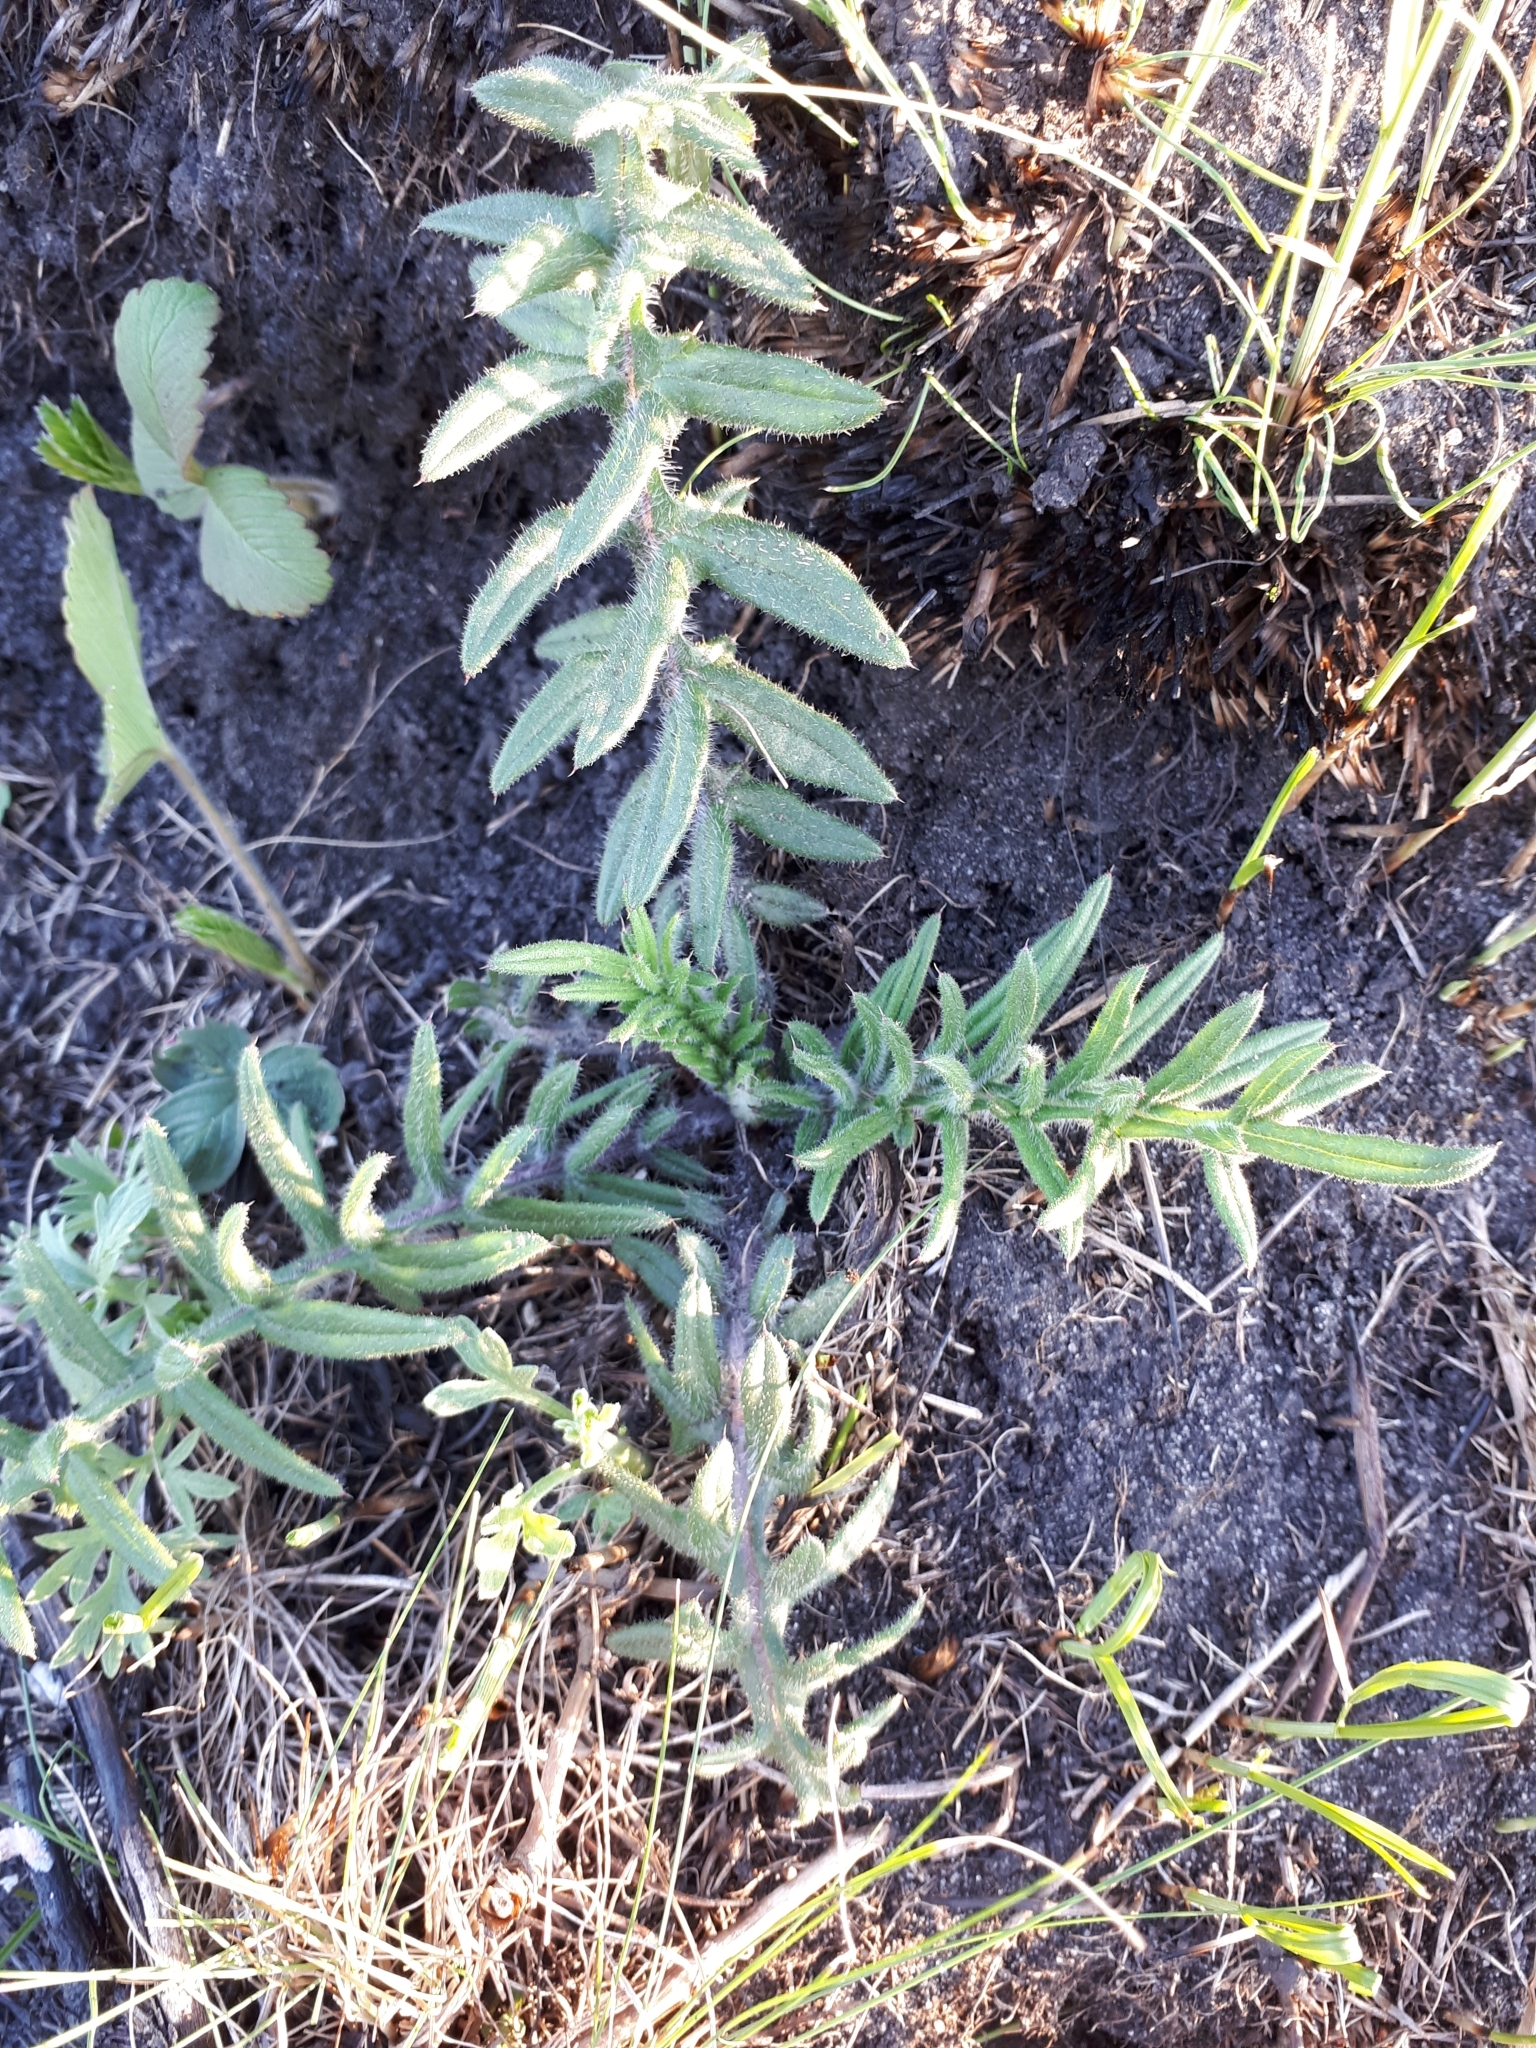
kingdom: Plantae
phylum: Tracheophyta
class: Magnoliopsida
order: Asterales
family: Asteraceae
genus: Lophiolepis
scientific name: Lophiolepis decussata
